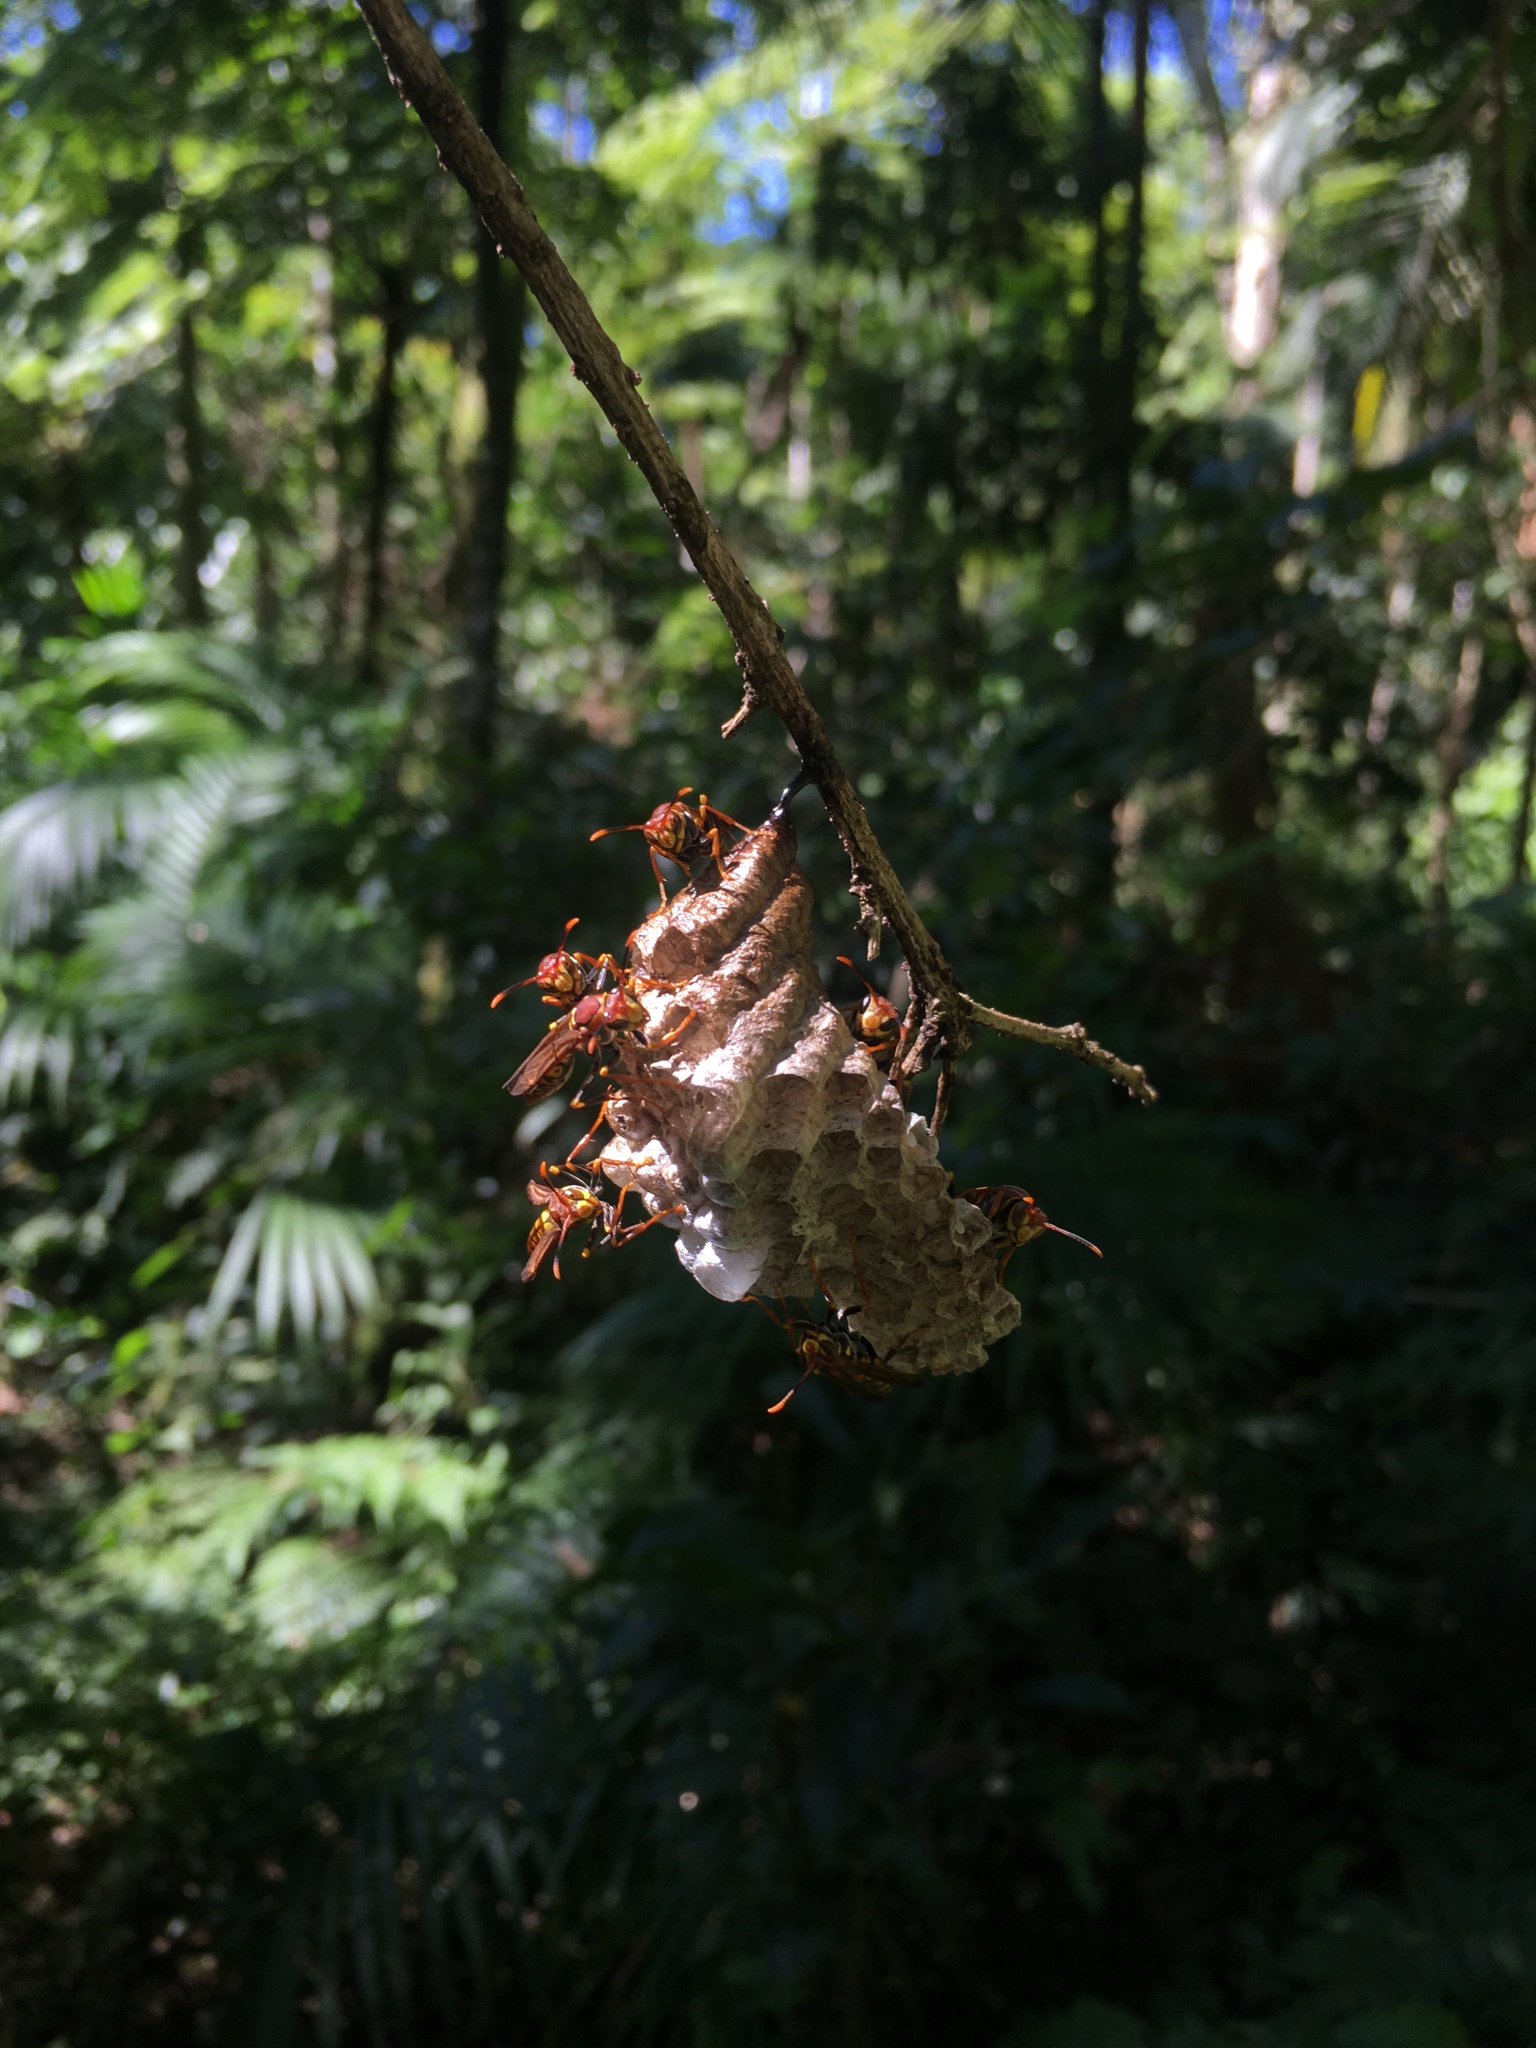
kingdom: Animalia
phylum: Arthropoda
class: Insecta
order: Hymenoptera
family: Eumenidae
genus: Polistes
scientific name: Polistes versicolor
